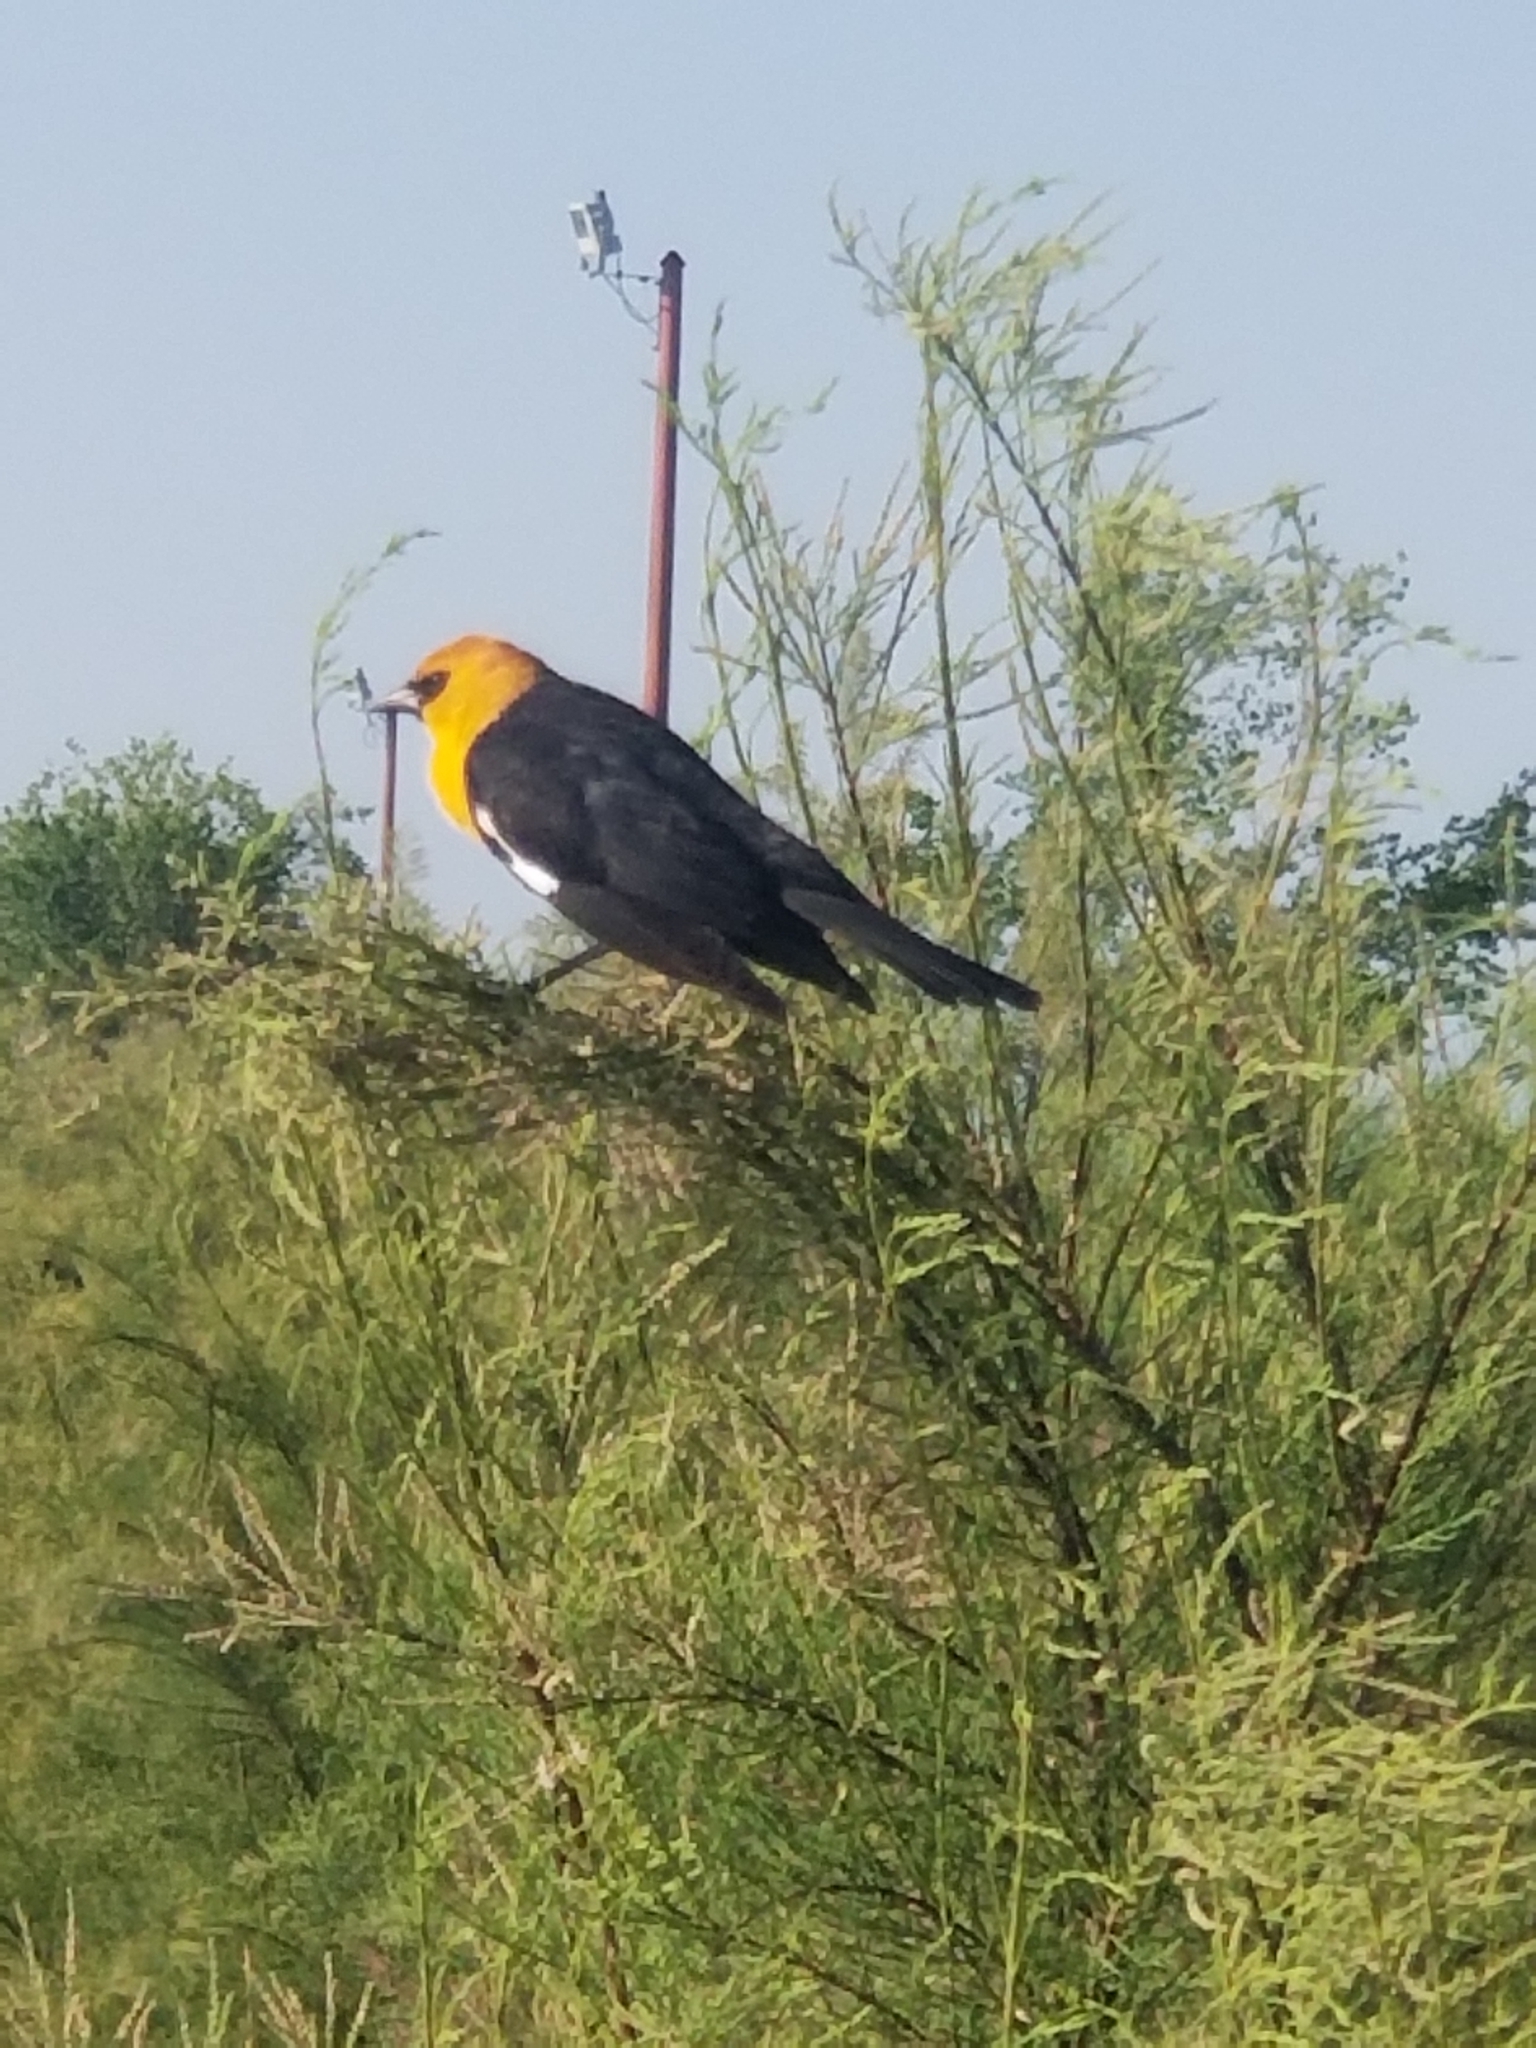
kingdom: Animalia
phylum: Chordata
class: Aves
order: Passeriformes
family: Icteridae
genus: Xanthocephalus
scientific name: Xanthocephalus xanthocephalus
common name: Yellow-headed blackbird
